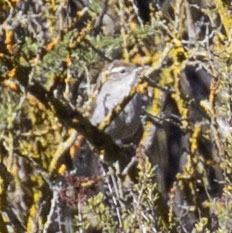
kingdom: Animalia
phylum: Chordata
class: Aves
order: Passeriformes
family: Troglodytidae
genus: Thryomanes
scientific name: Thryomanes bewickii
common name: Bewick's wren
